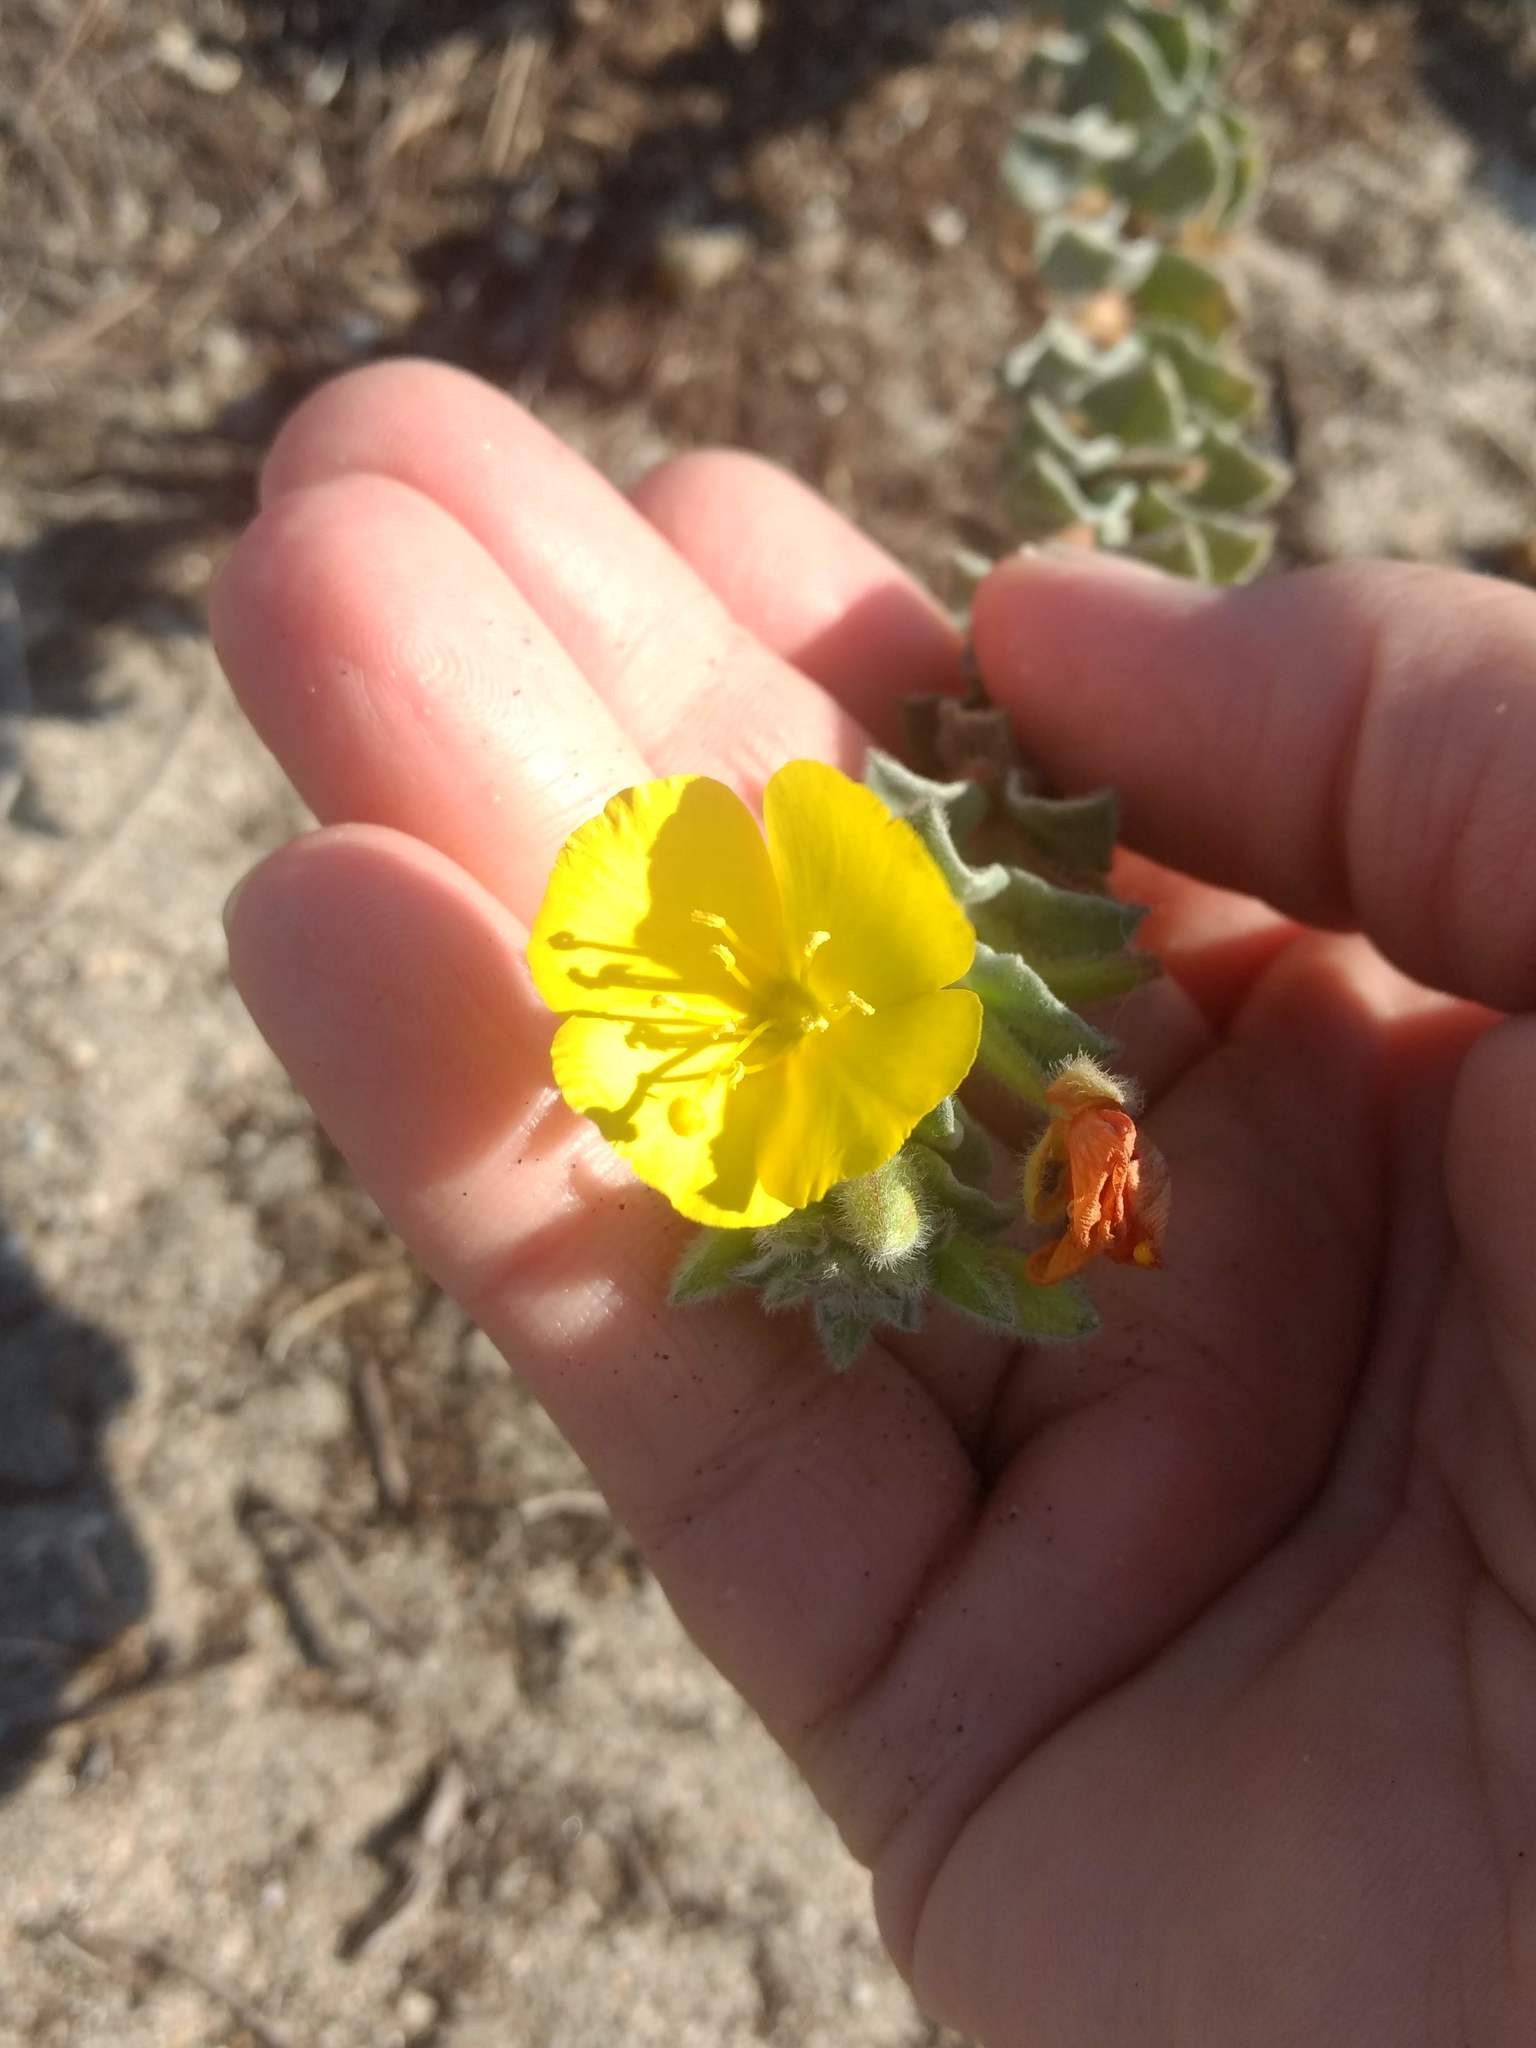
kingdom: Plantae
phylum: Tracheophyta
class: Magnoliopsida
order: Myrtales
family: Onagraceae
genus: Camissoniopsis
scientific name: Camissoniopsis cheiranthifolia
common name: Beach suncup
